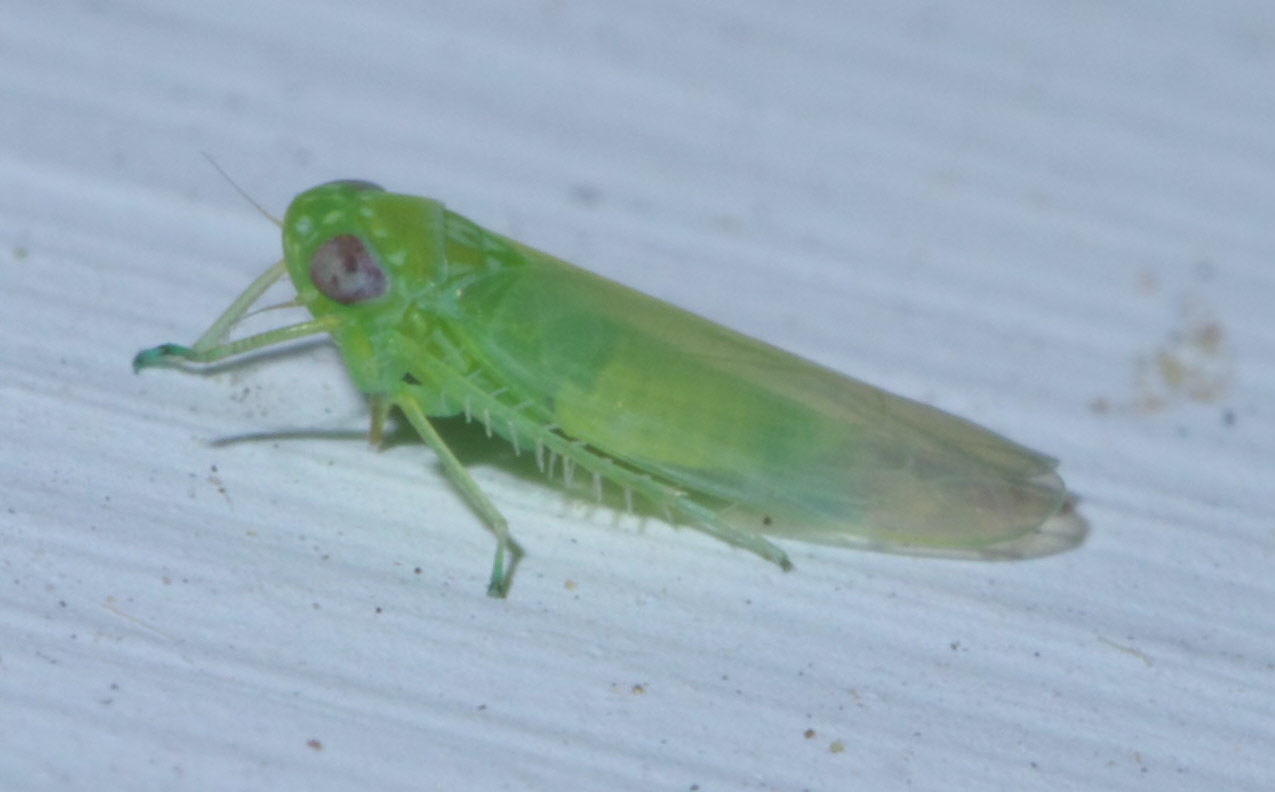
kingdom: Animalia
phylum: Arthropoda
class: Insecta
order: Hemiptera
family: Cicadellidae
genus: Empoasca
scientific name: Empoasca fabae
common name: Potato leafhopper
